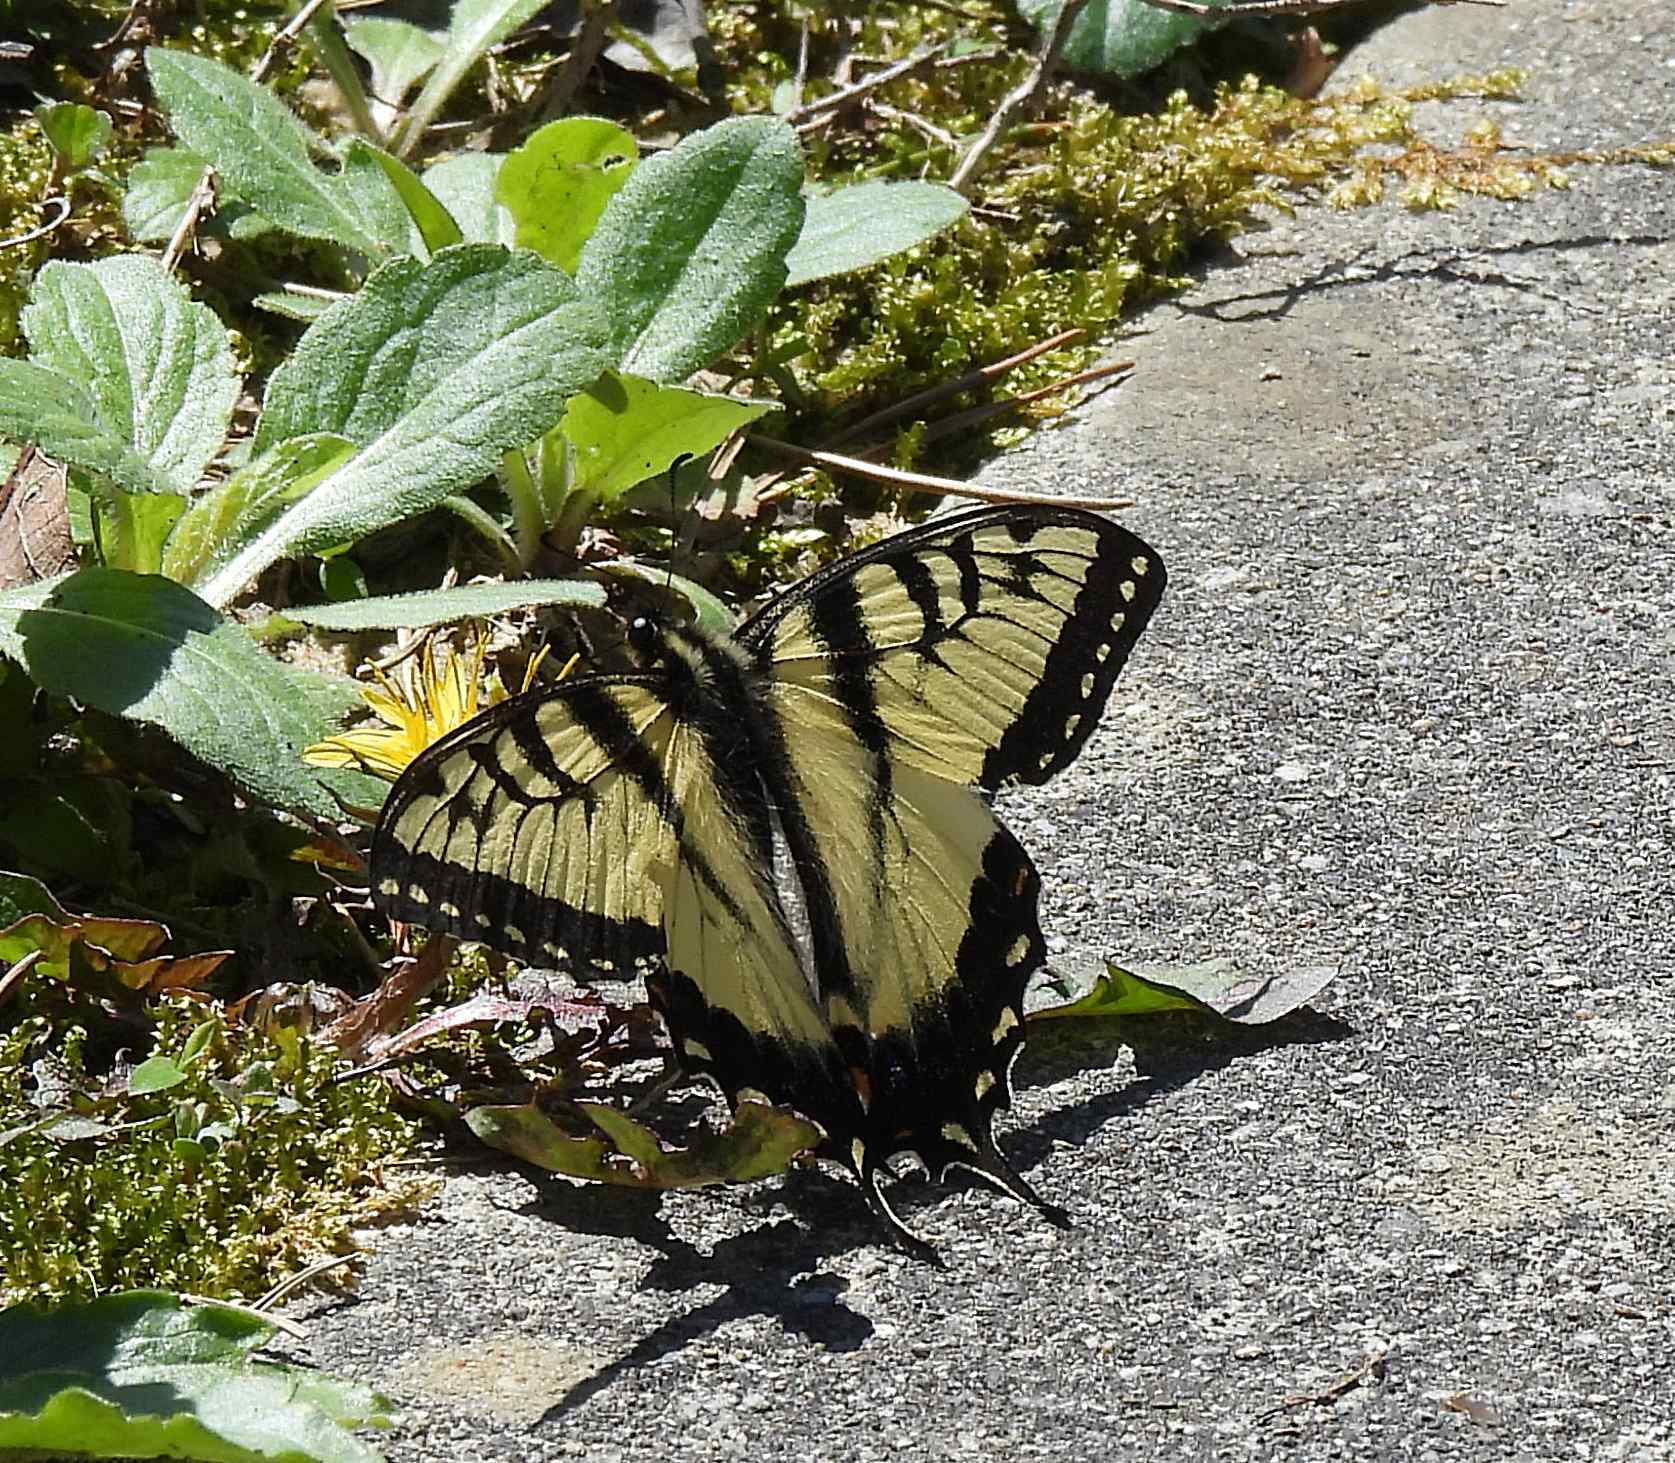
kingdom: Animalia
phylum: Arthropoda
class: Insecta
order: Lepidoptera
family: Papilionidae
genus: Papilio
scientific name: Papilio glaucus
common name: Tiger swallowtail
